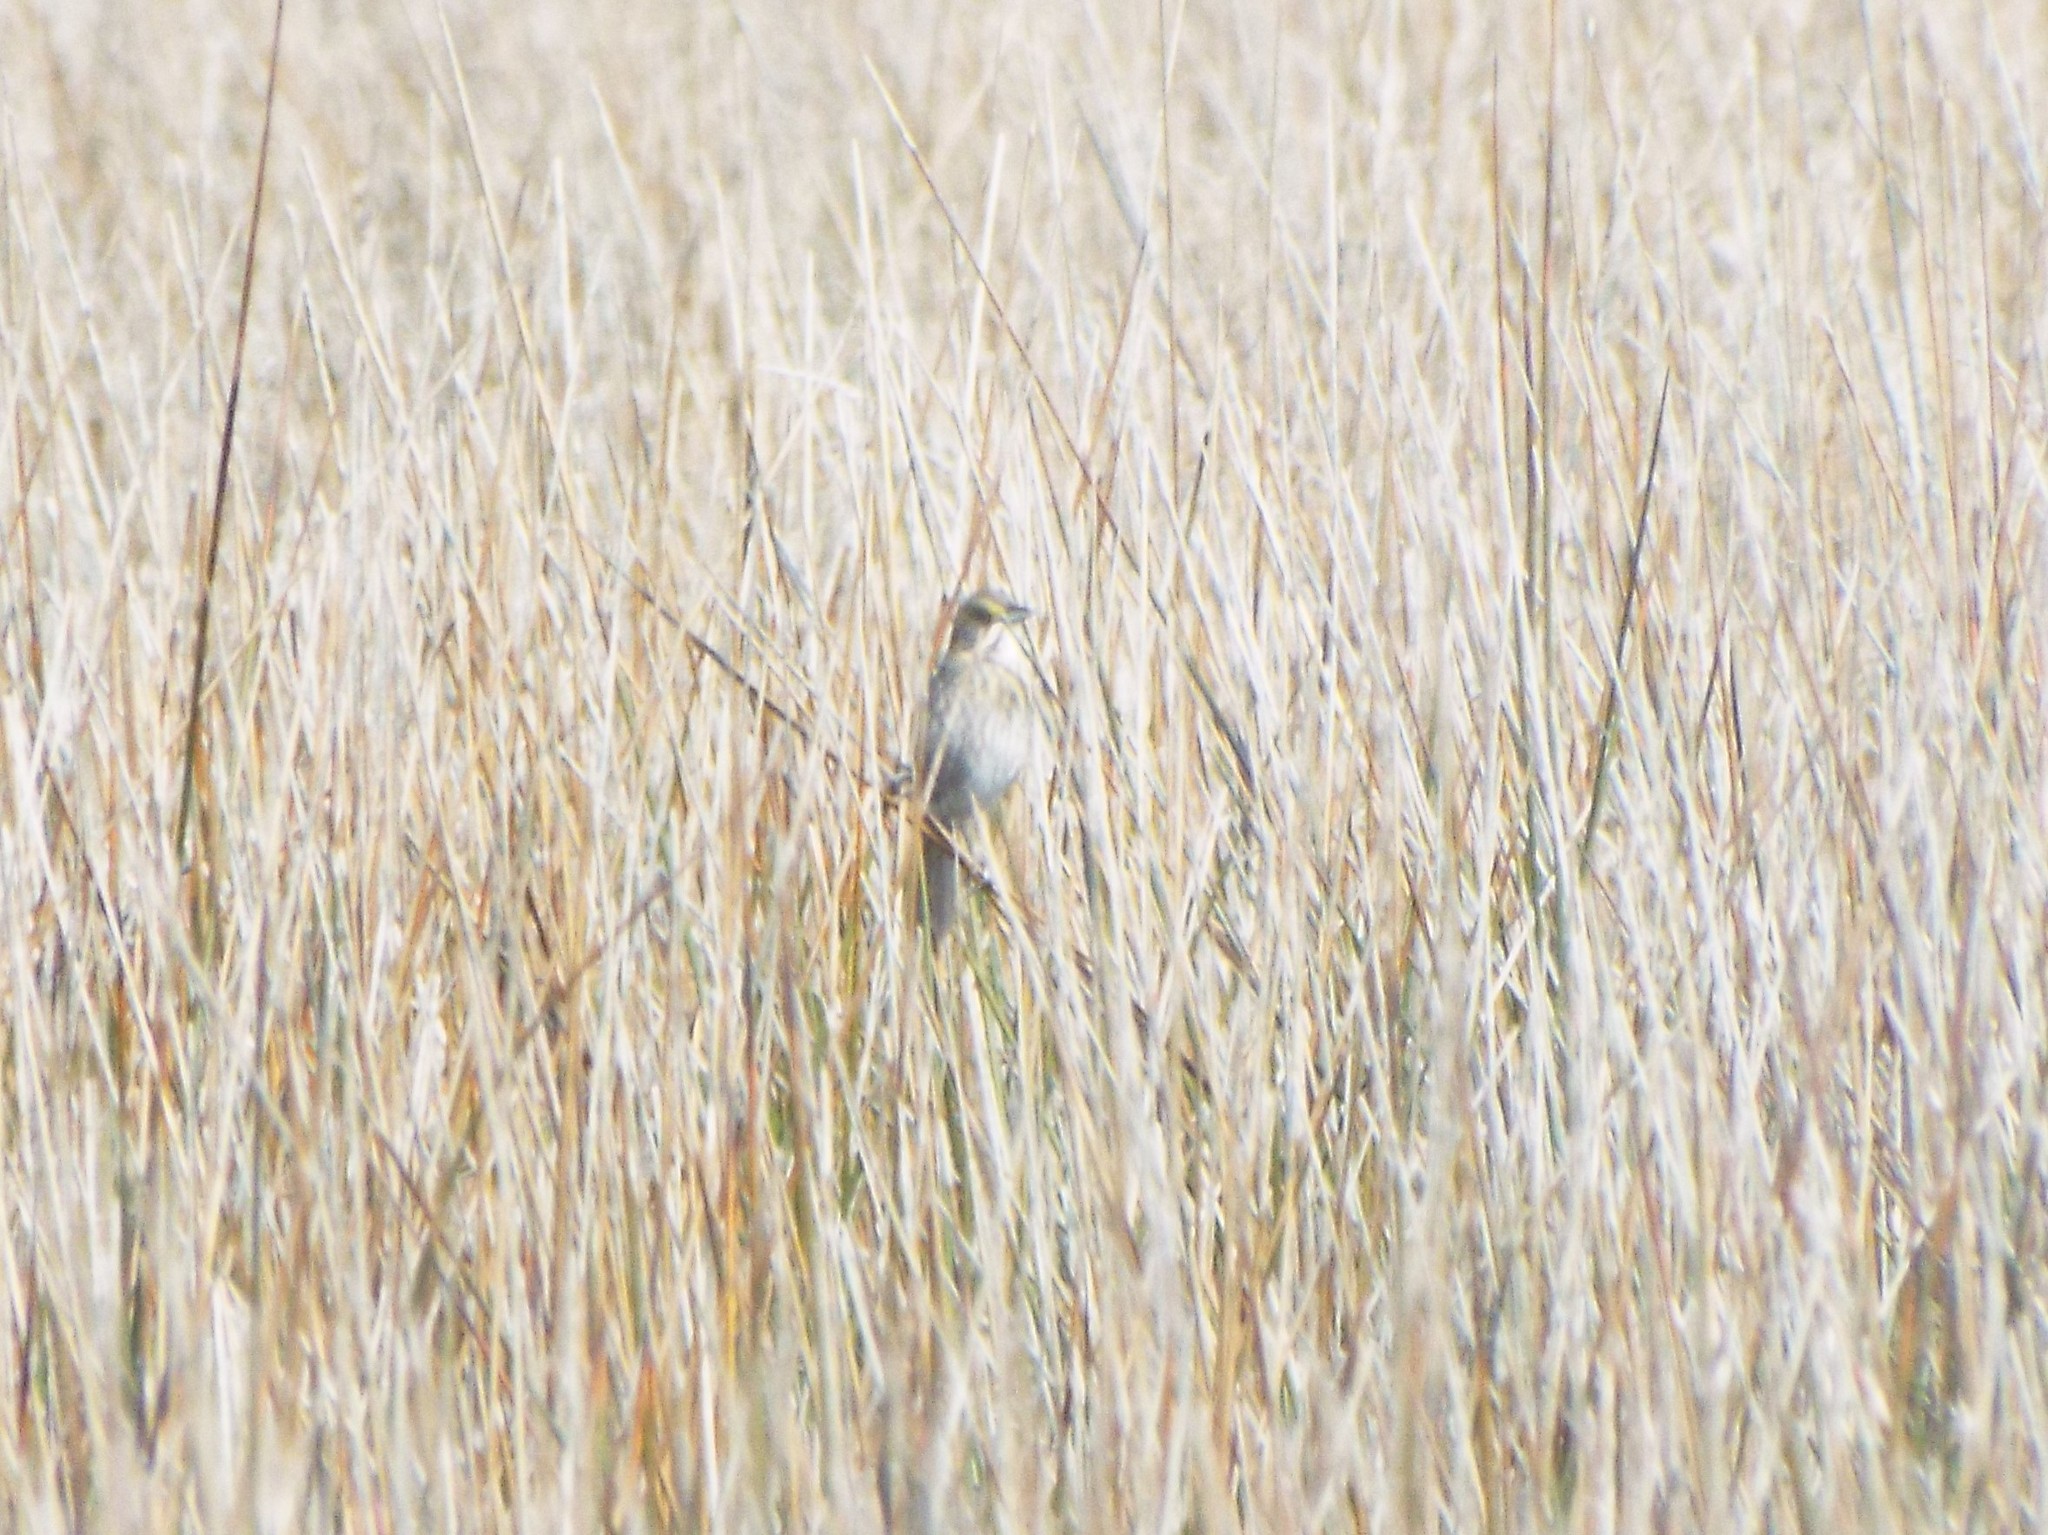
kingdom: Animalia
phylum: Chordata
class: Aves
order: Passeriformes
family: Passerellidae
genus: Ammospiza
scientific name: Ammospiza maritima
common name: Seaside sparrow
